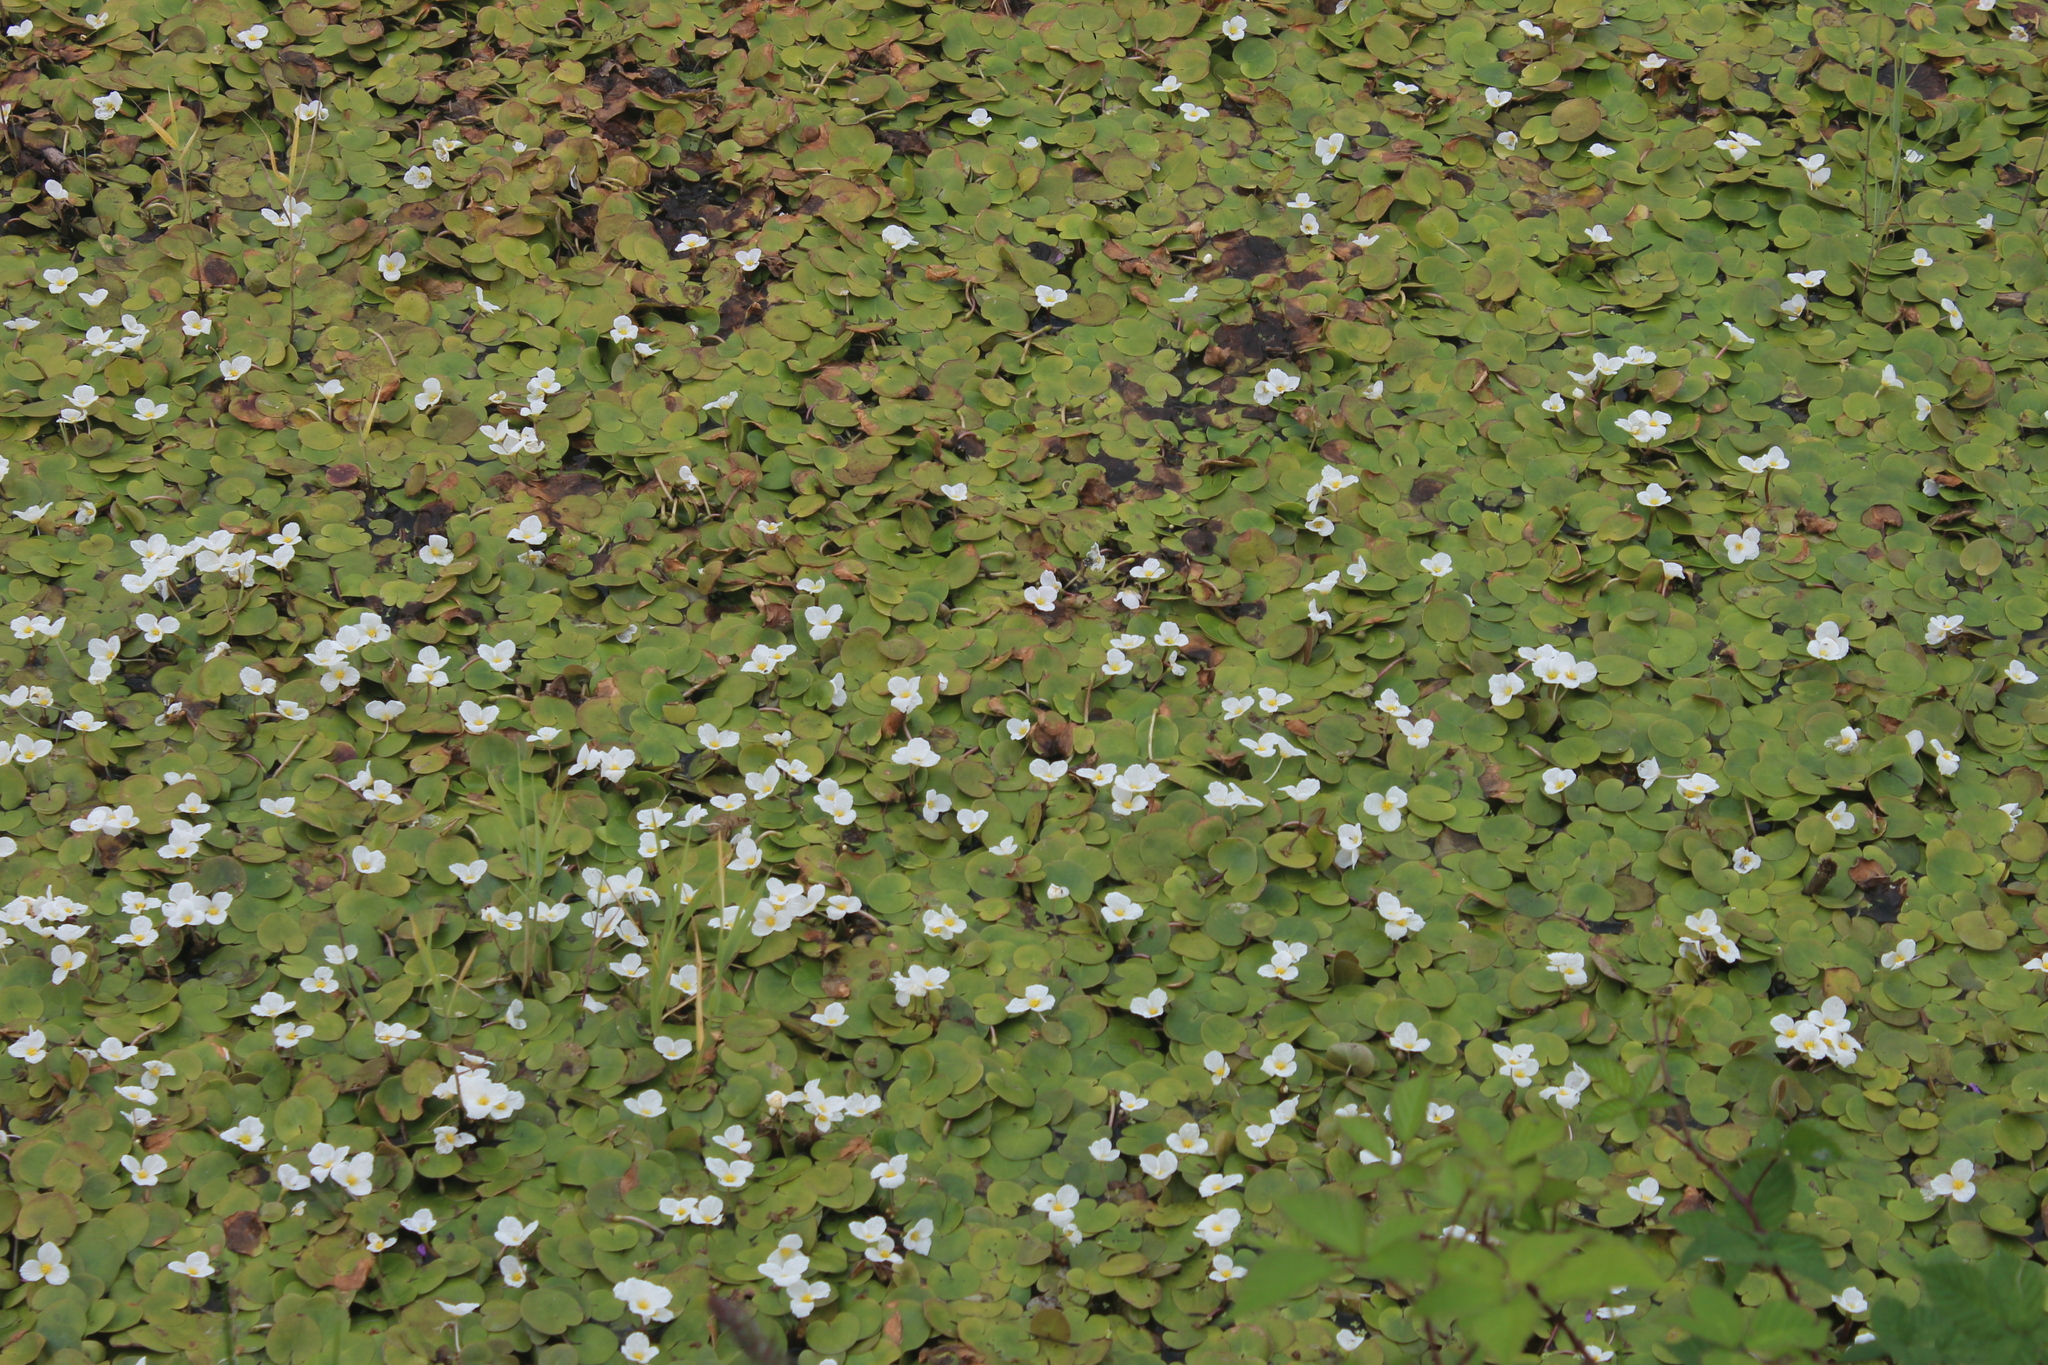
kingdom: Plantae
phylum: Tracheophyta
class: Liliopsida
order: Alismatales
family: Hydrocharitaceae
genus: Hydrocharis
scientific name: Hydrocharis morsus-ranae
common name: Frogbit
